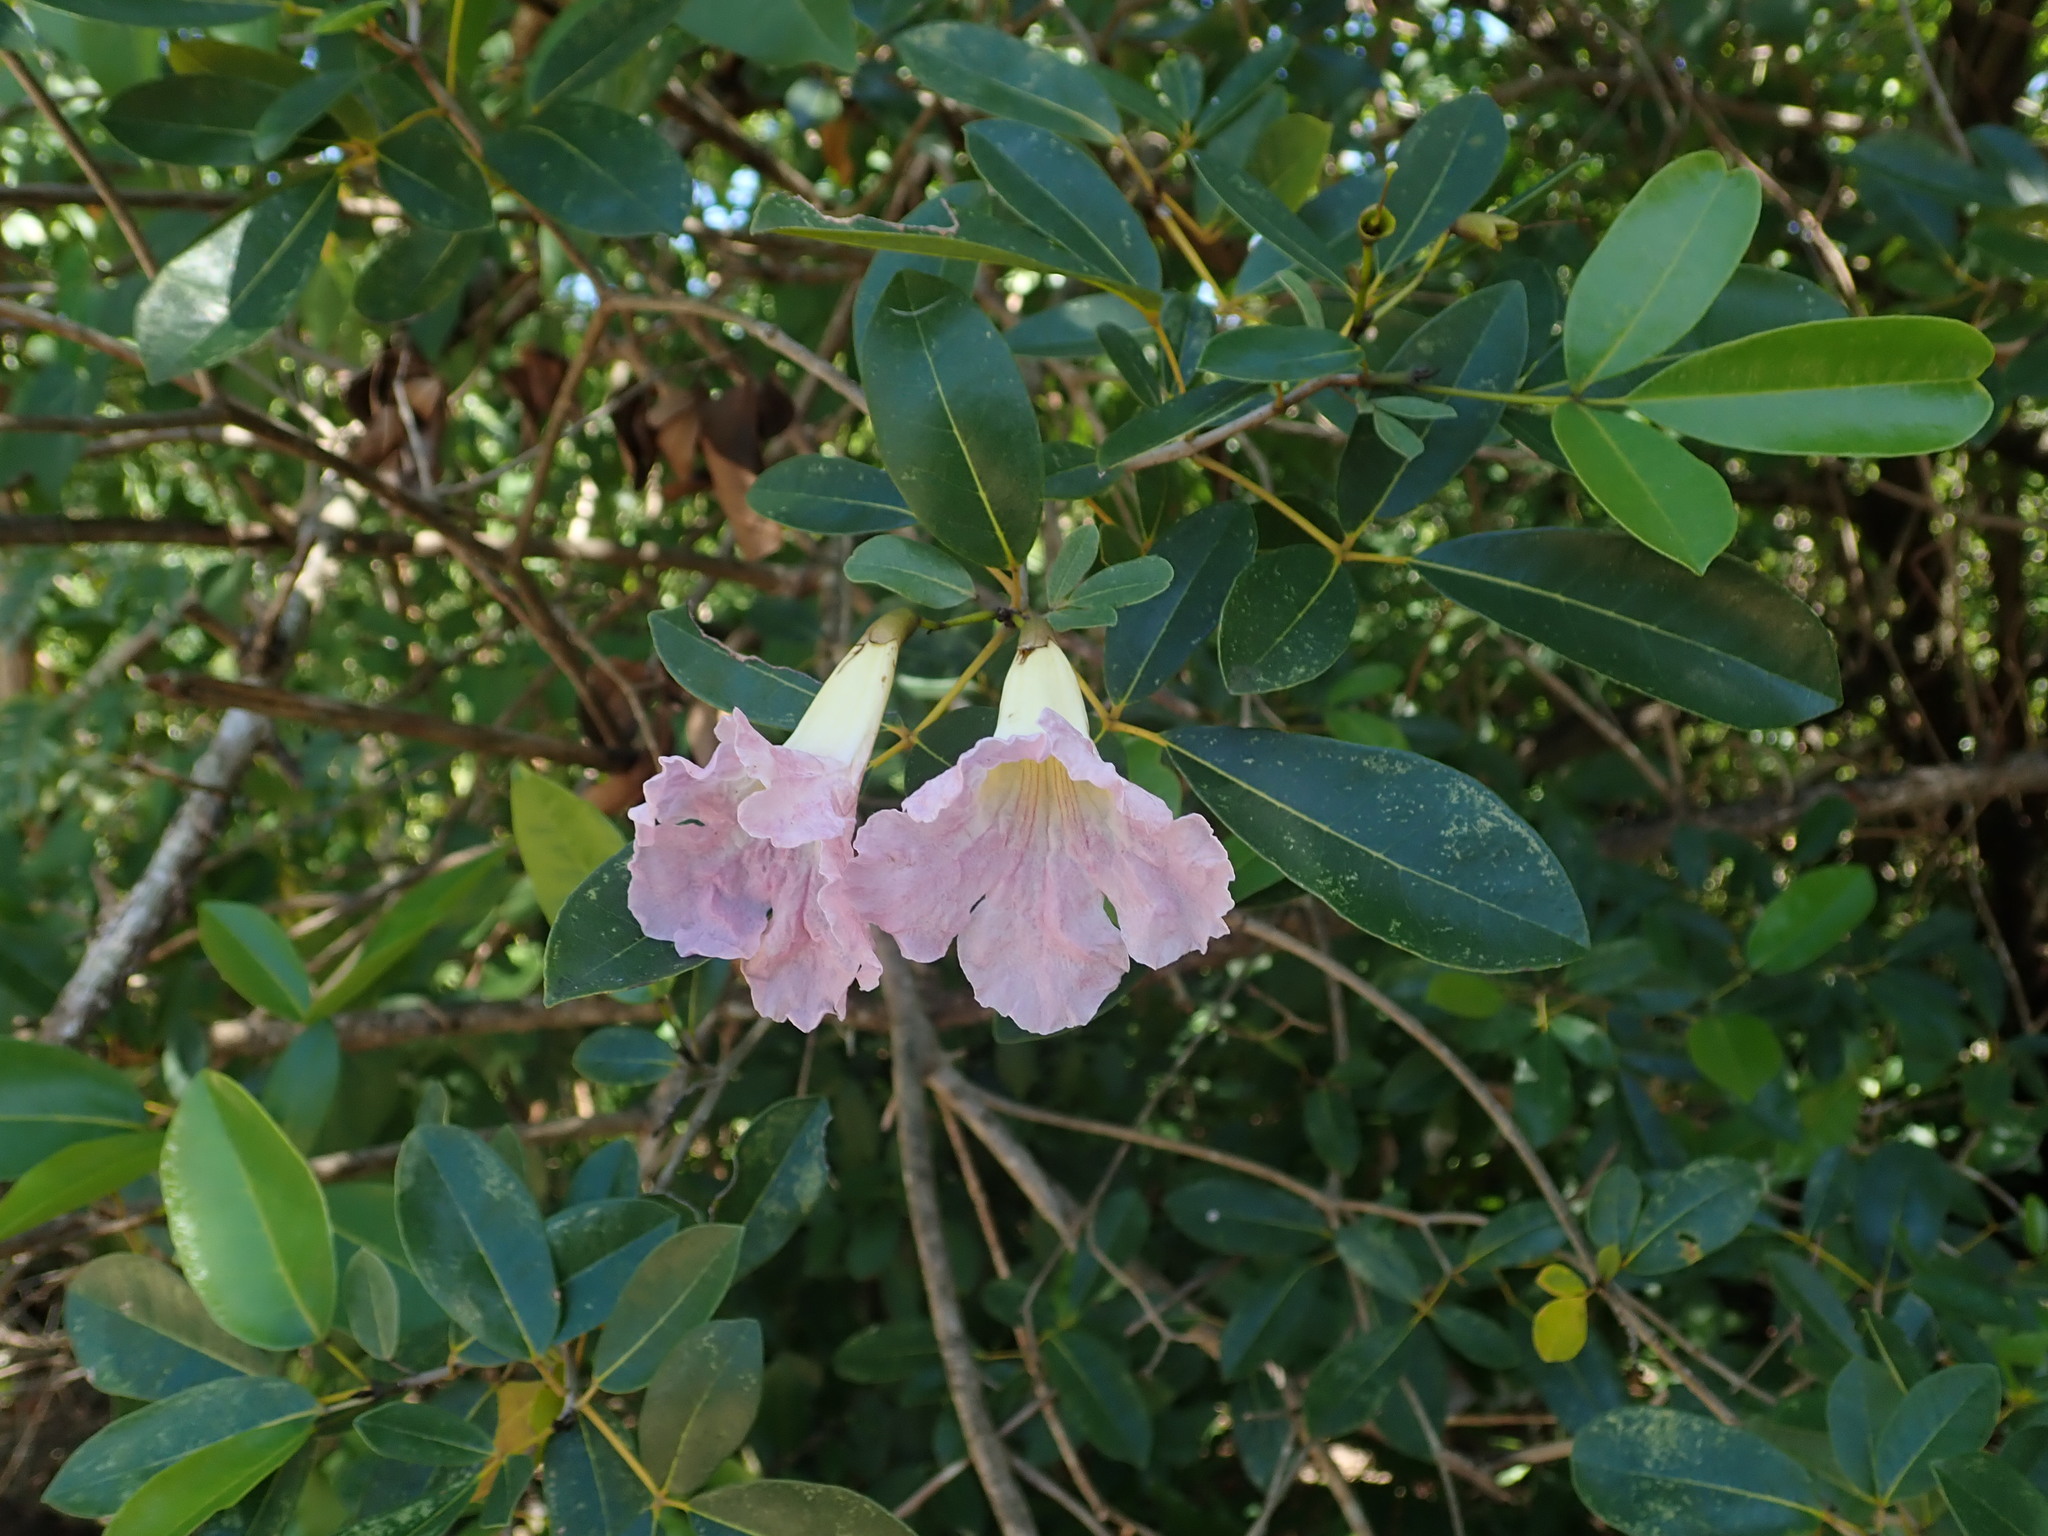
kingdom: Plantae
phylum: Tracheophyta
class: Magnoliopsida
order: Lamiales
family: Bignoniaceae
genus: Tabebuia
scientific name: Tabebuia heterophylla
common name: White cedar
